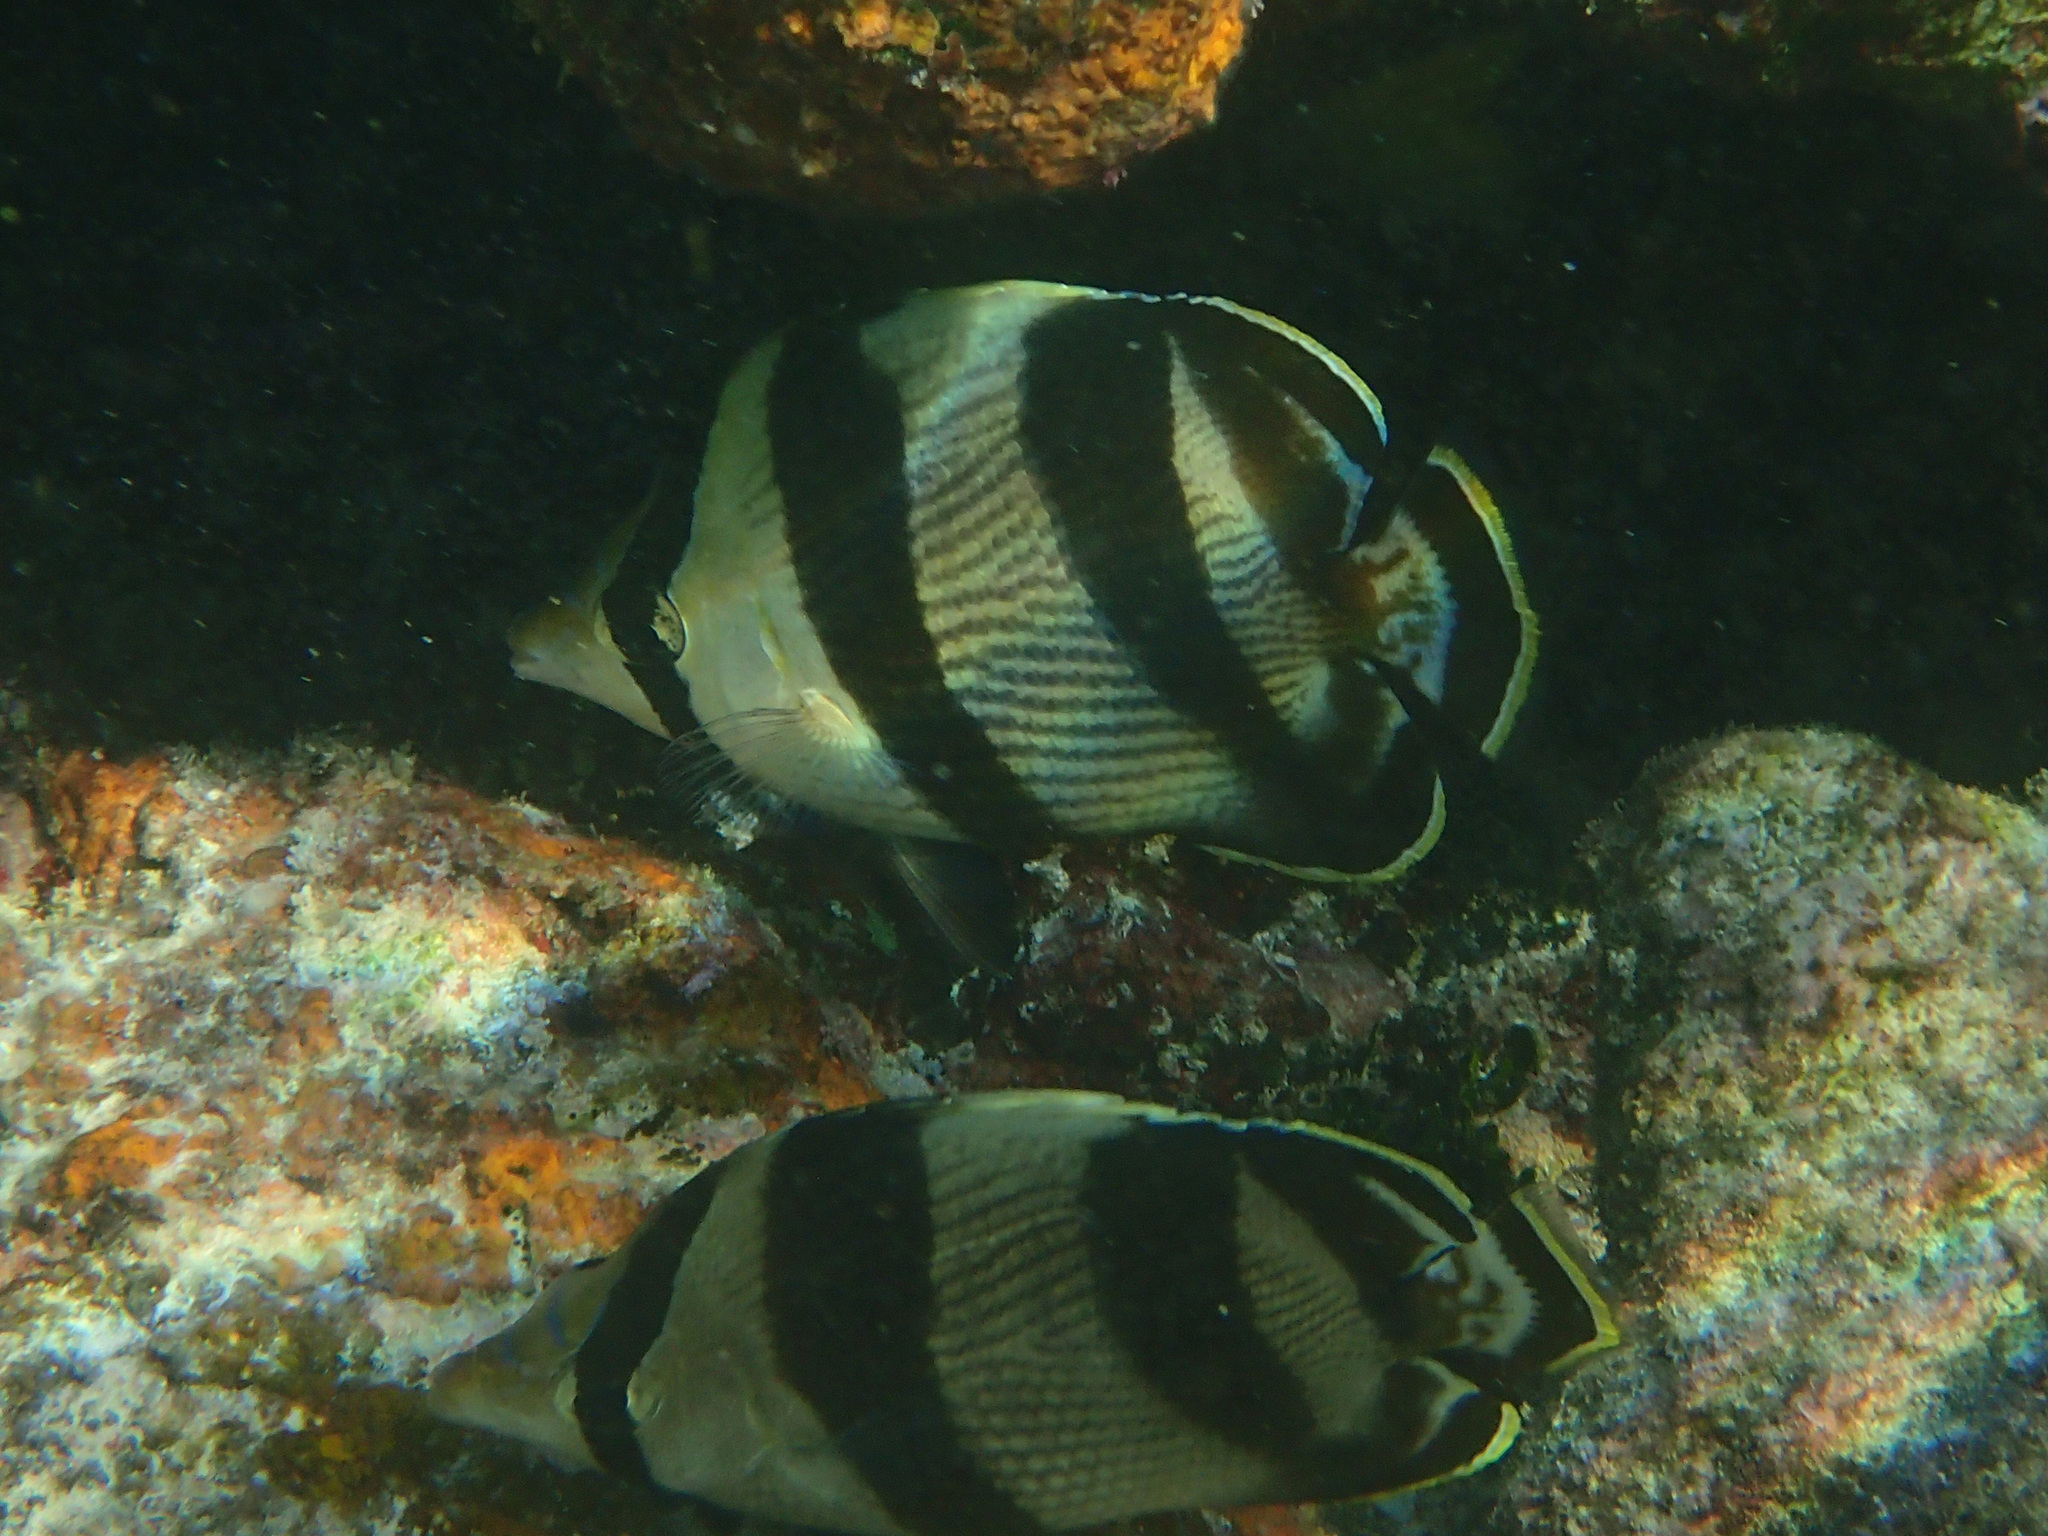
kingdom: Animalia
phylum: Chordata
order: Perciformes
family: Chaetodontidae
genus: Chaetodon
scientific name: Chaetodon striatus
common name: Banded butterflyfish
